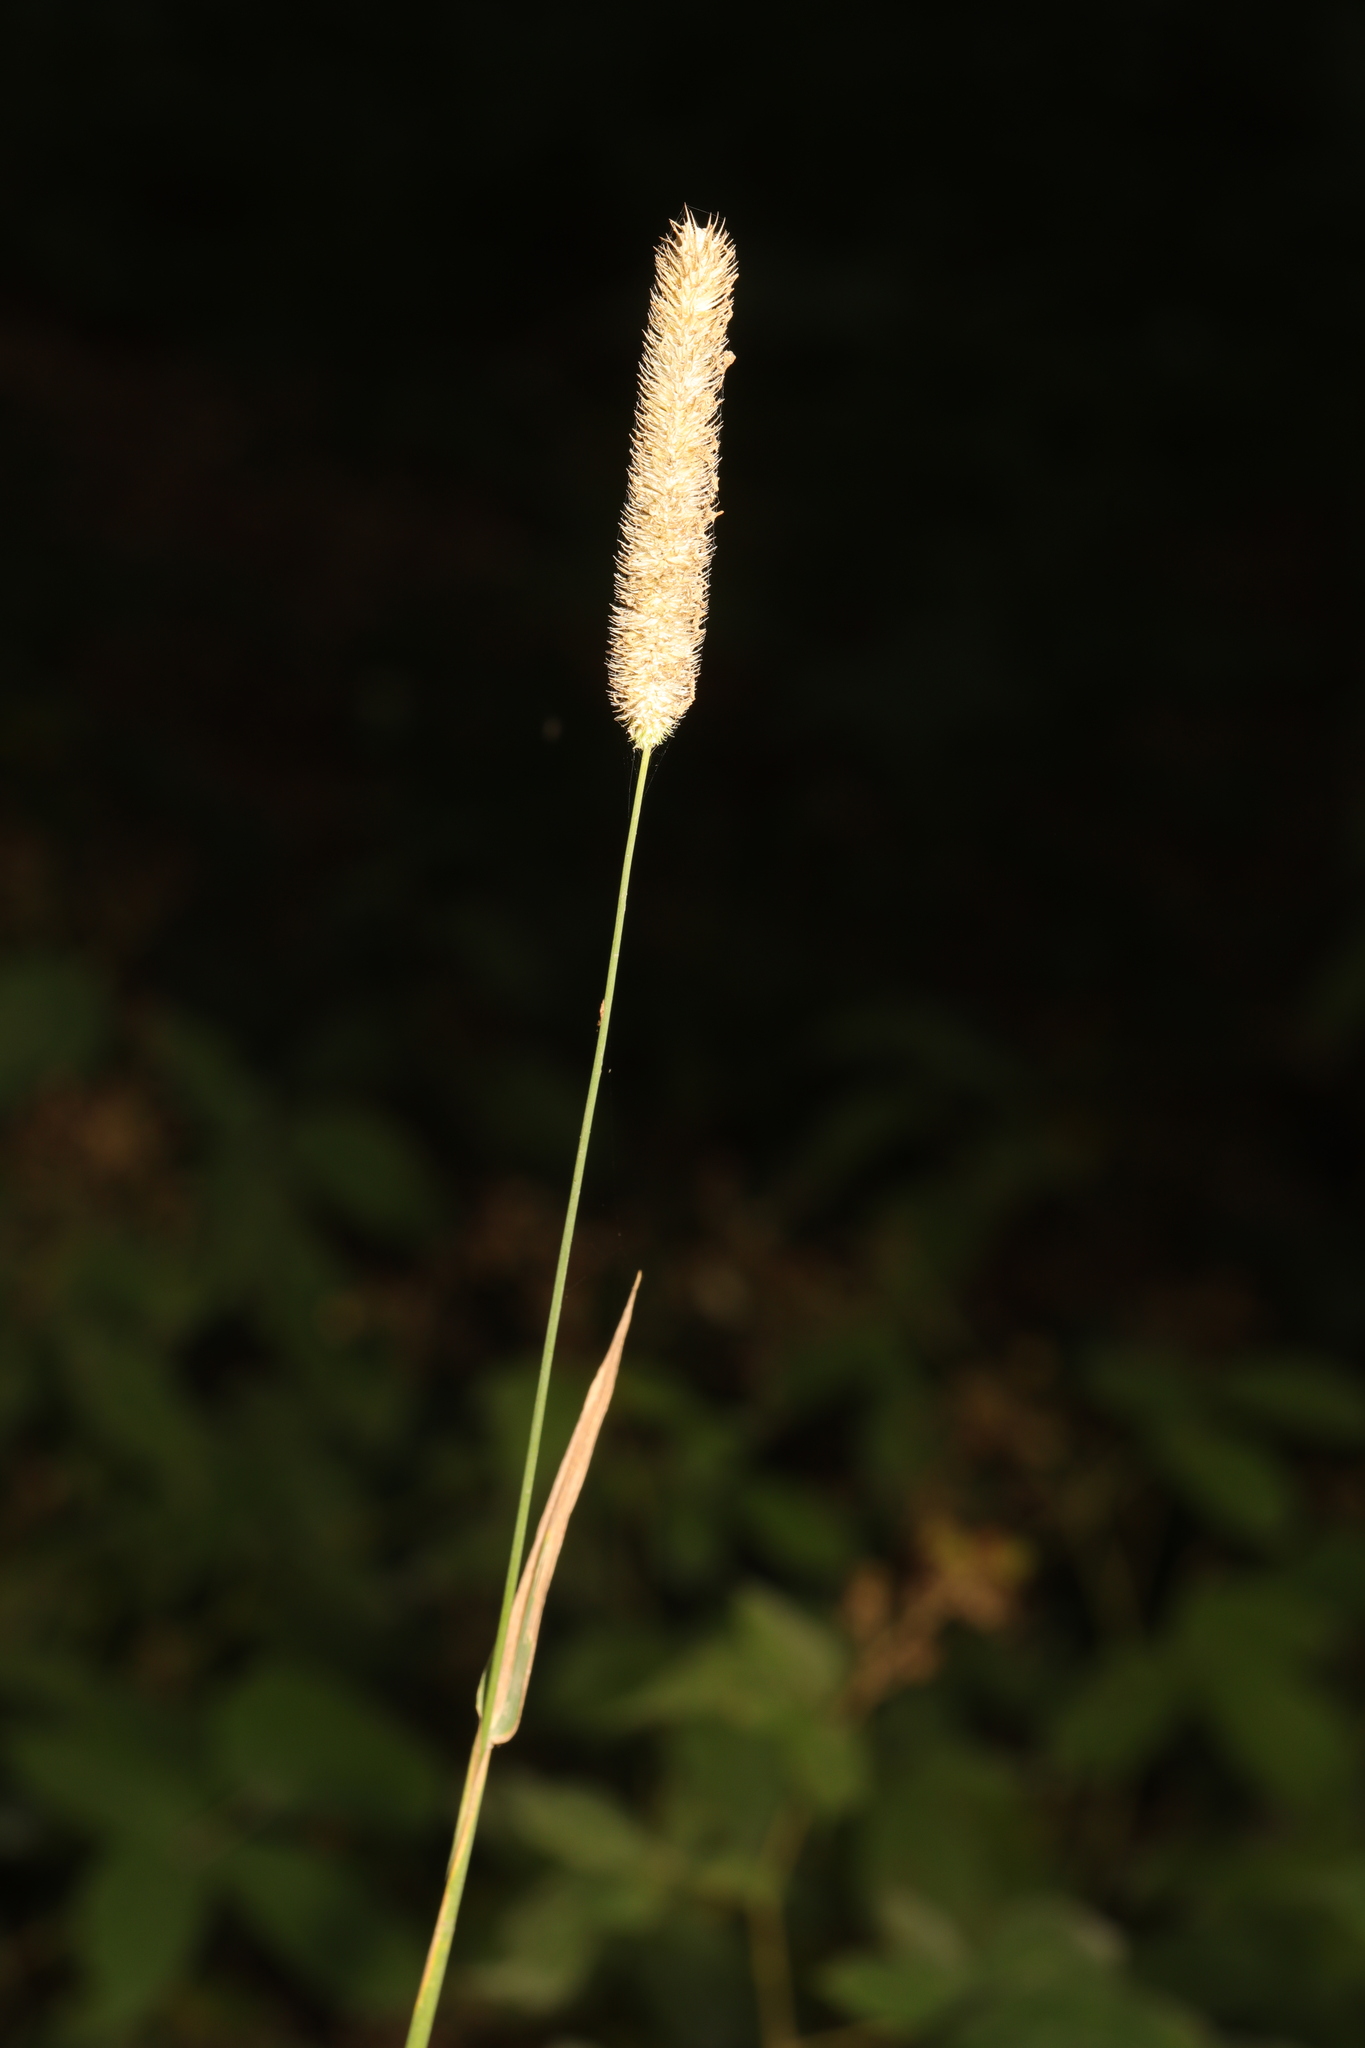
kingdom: Plantae
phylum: Tracheophyta
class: Liliopsida
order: Poales
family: Poaceae
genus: Phleum
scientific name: Phleum pratense
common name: Timothy grass
